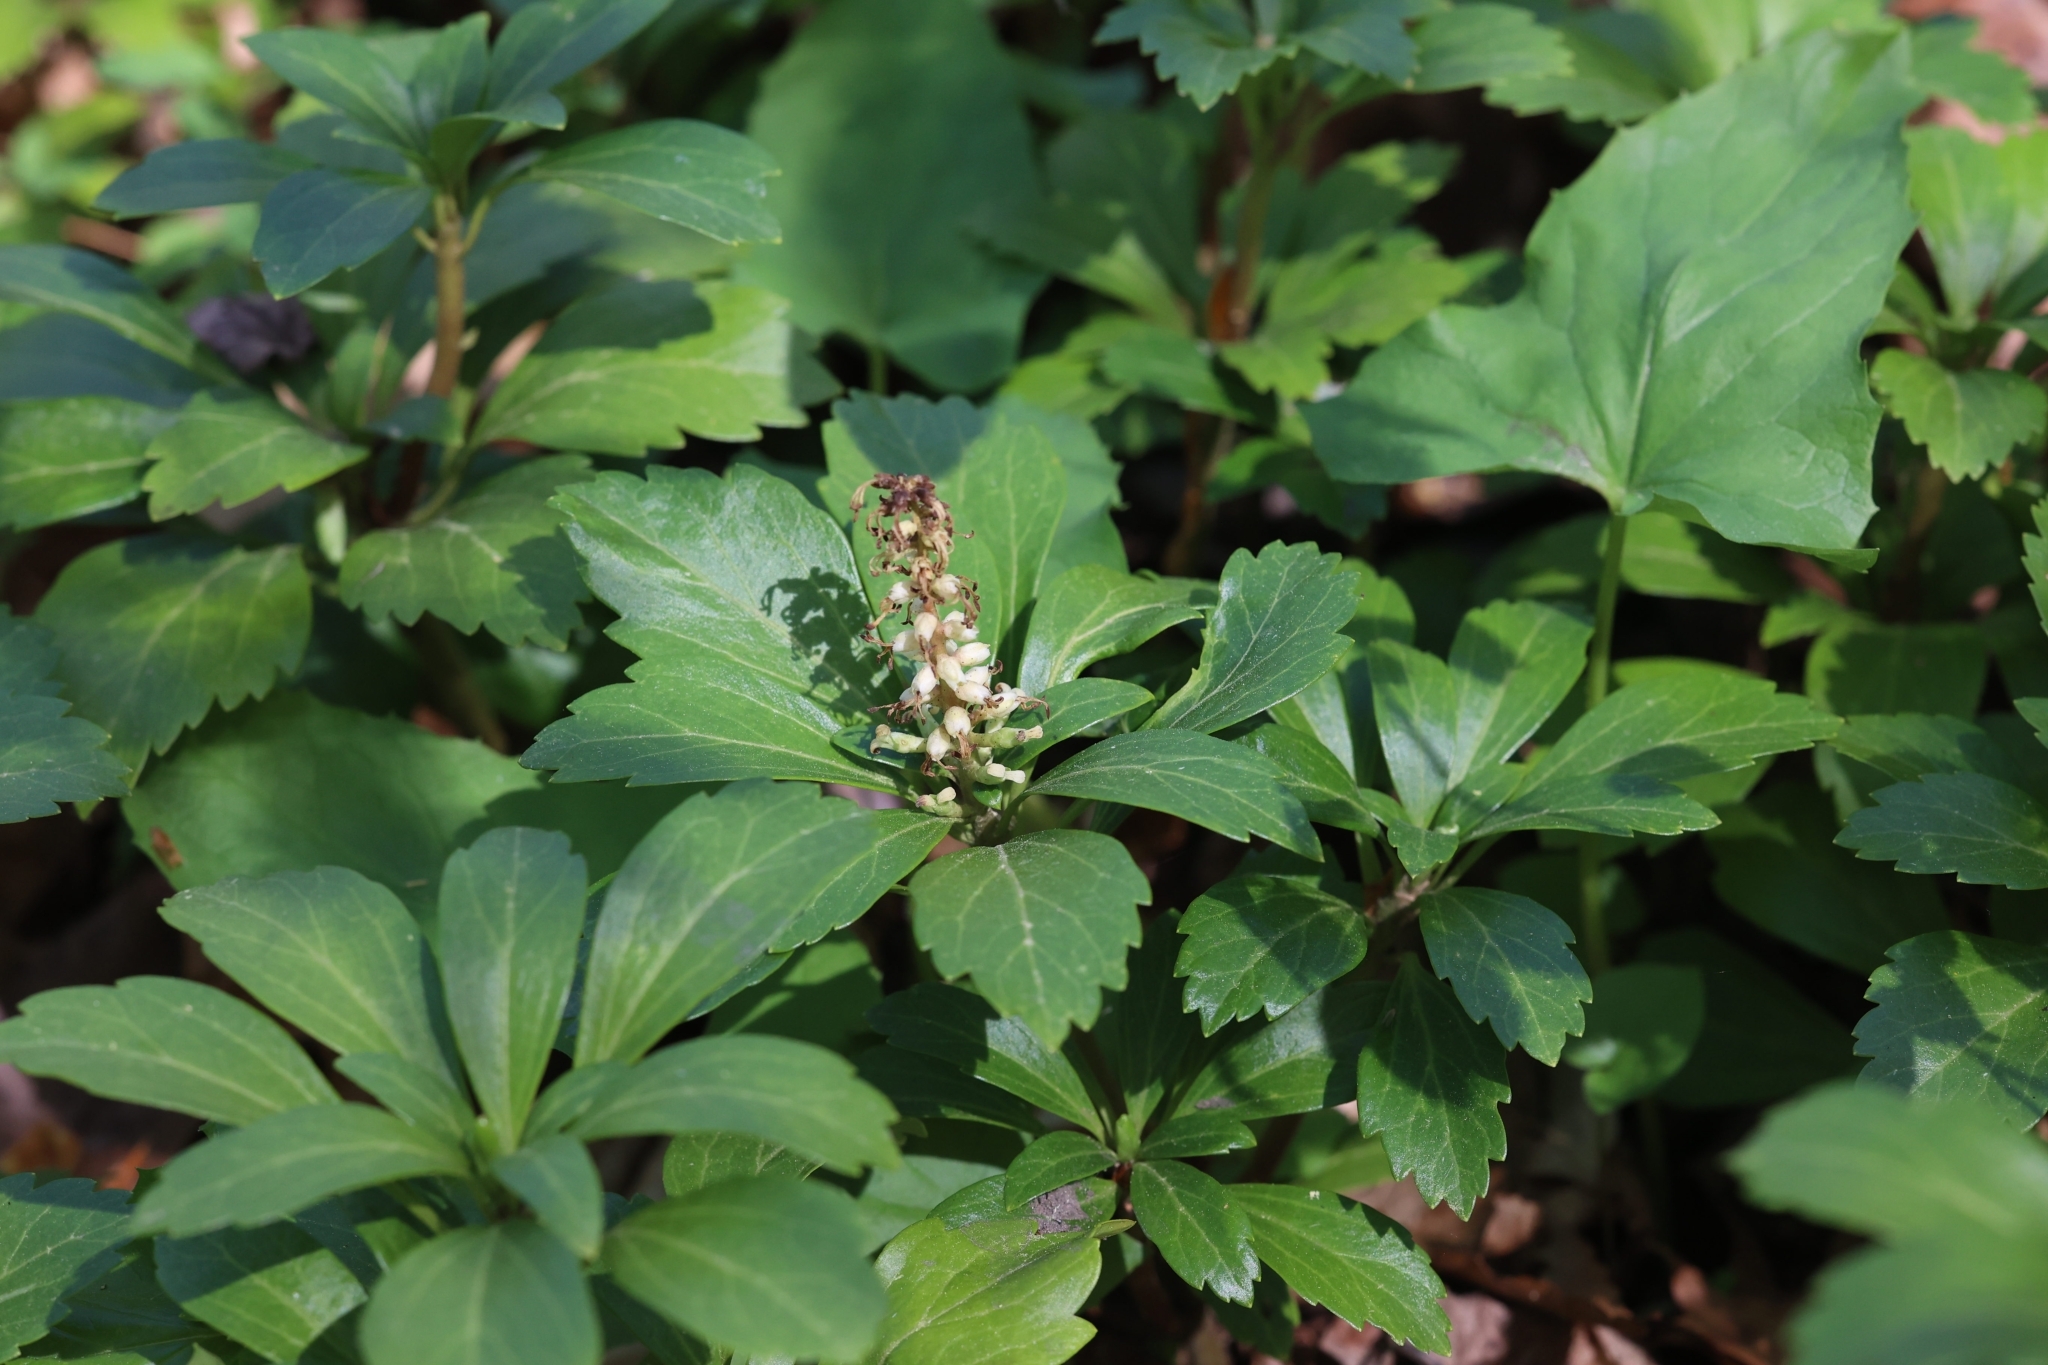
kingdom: Plantae
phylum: Tracheophyta
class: Magnoliopsida
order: Buxales
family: Buxaceae
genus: Pachysandra
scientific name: Pachysandra terminalis
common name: Japanese pachysandra
